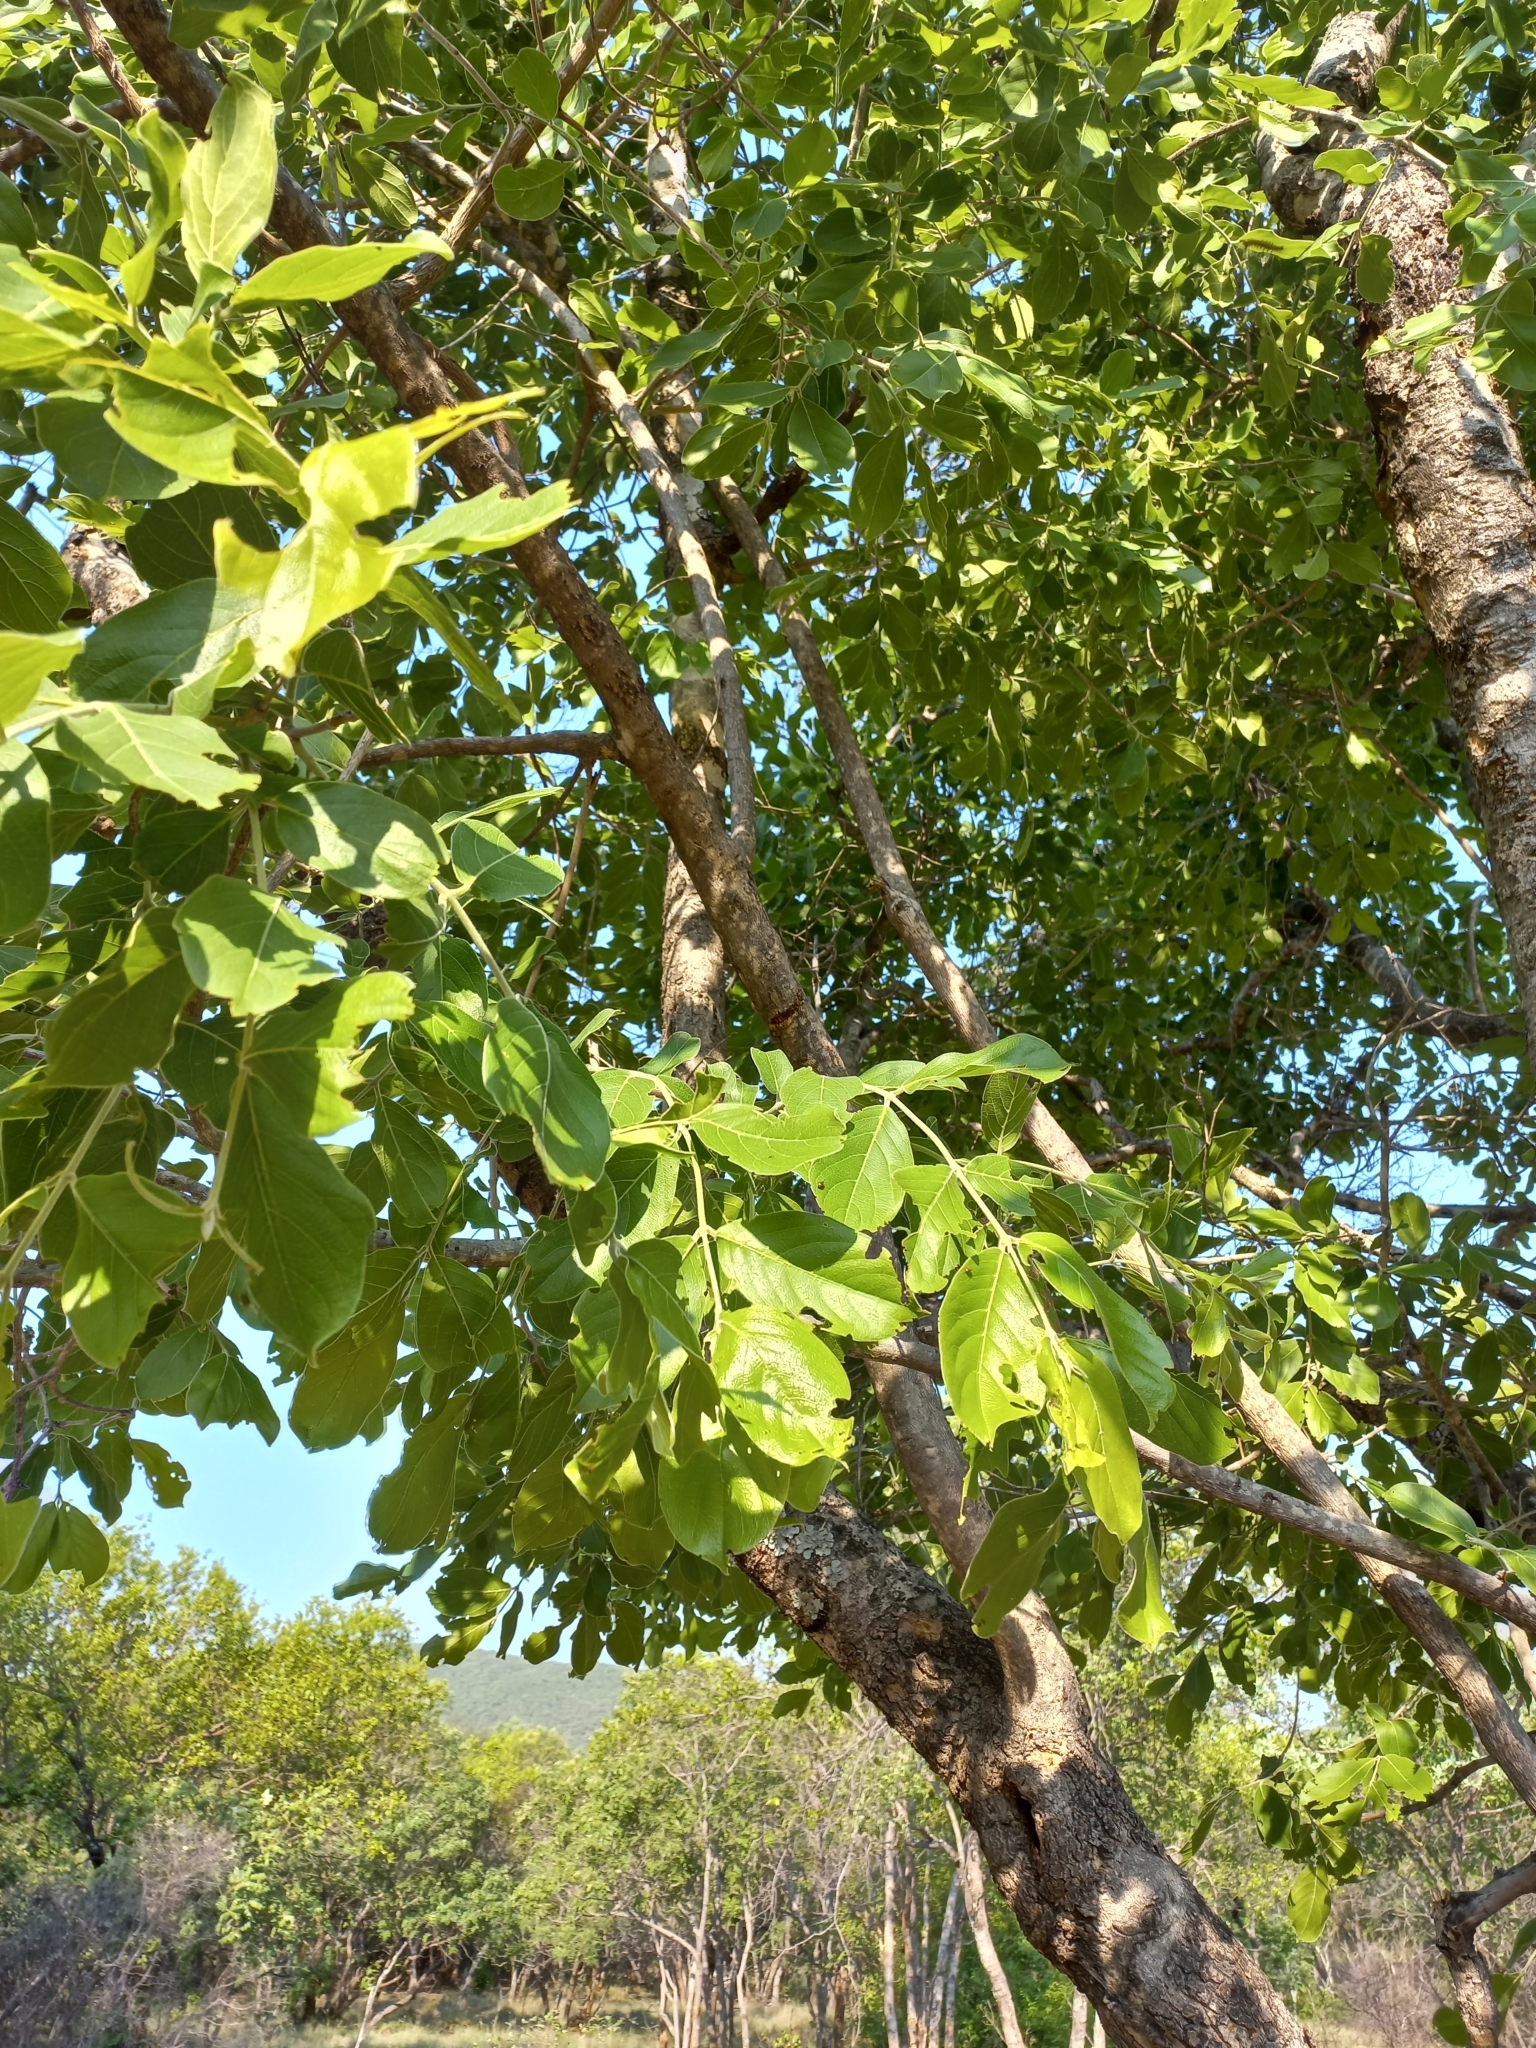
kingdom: Plantae
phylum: Tracheophyta
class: Magnoliopsida
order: Myrtales
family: Combretaceae
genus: Combretum
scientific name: Combretum zeyheri
